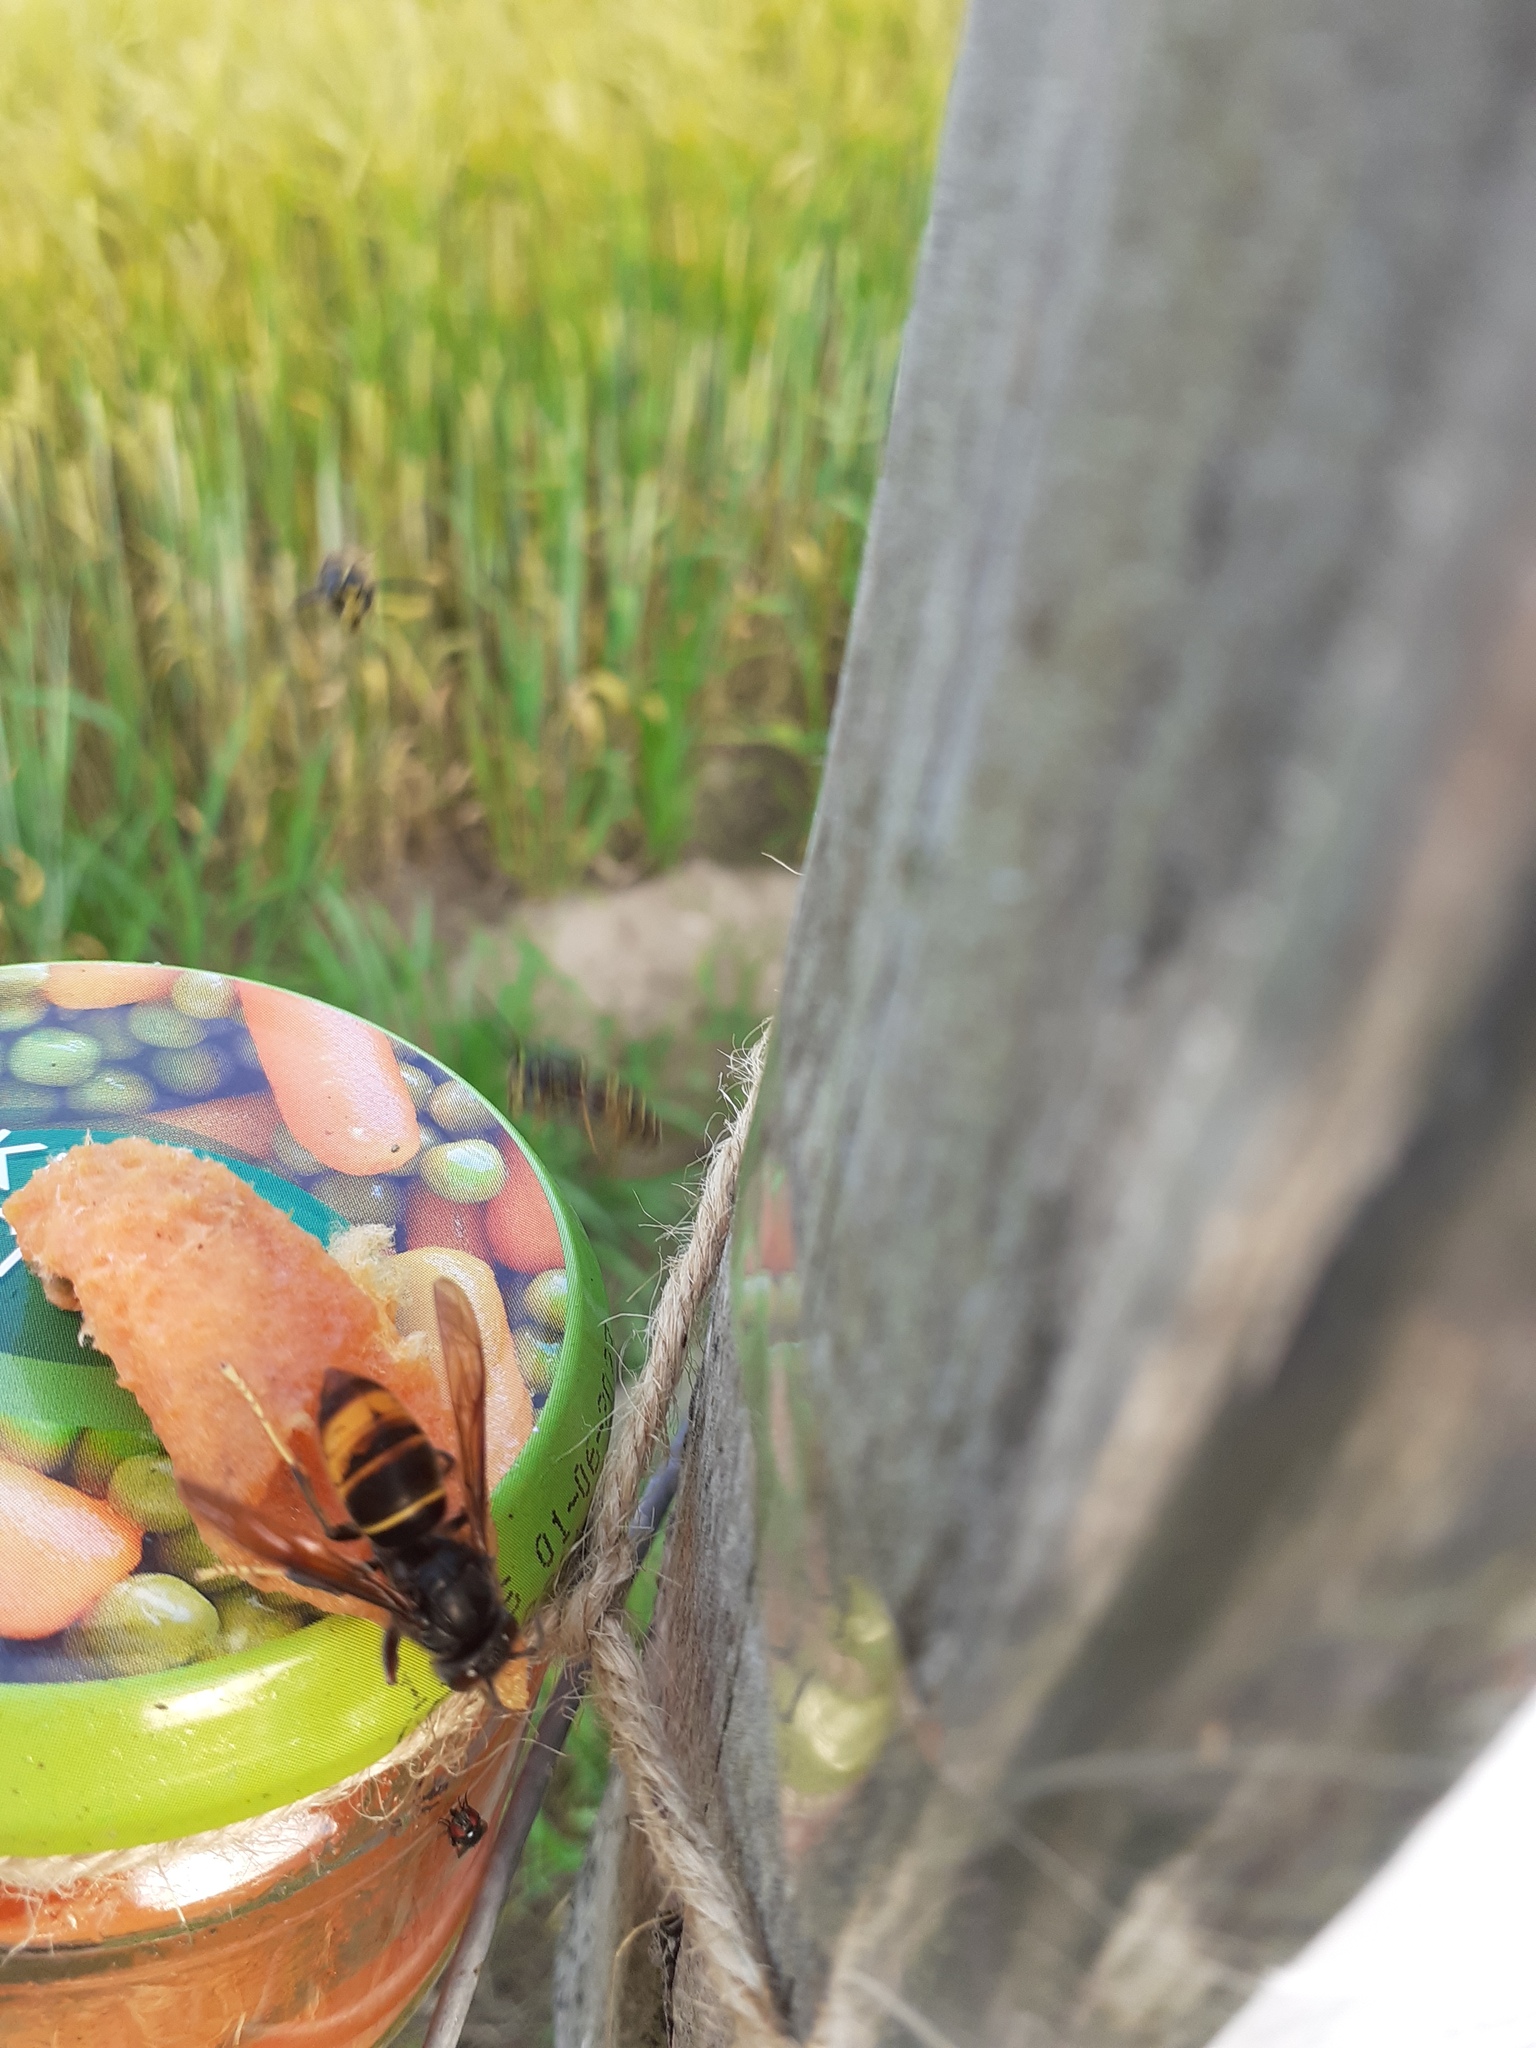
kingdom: Animalia
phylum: Arthropoda
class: Insecta
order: Hymenoptera
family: Vespidae
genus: Vespa
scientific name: Vespa velutina
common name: Asian hornet
